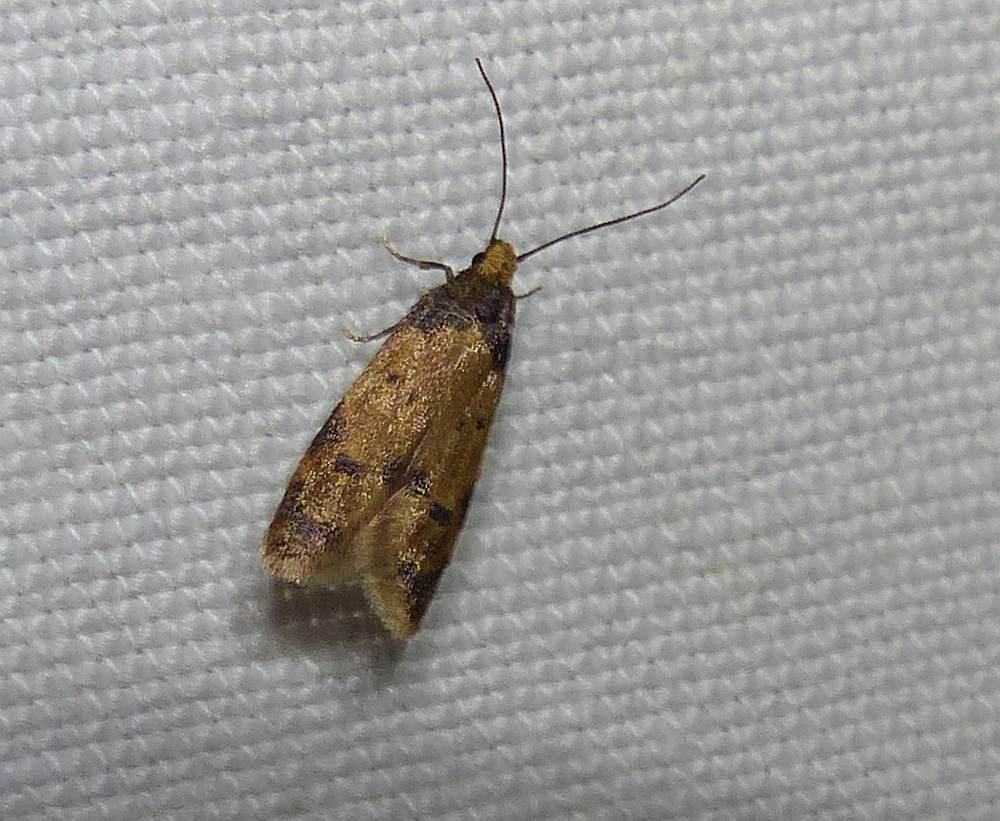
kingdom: Animalia
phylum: Arthropoda
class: Insecta
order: Lepidoptera
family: Autostichidae
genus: Gerdana
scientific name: Gerdana caritella
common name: Gerdana moth
